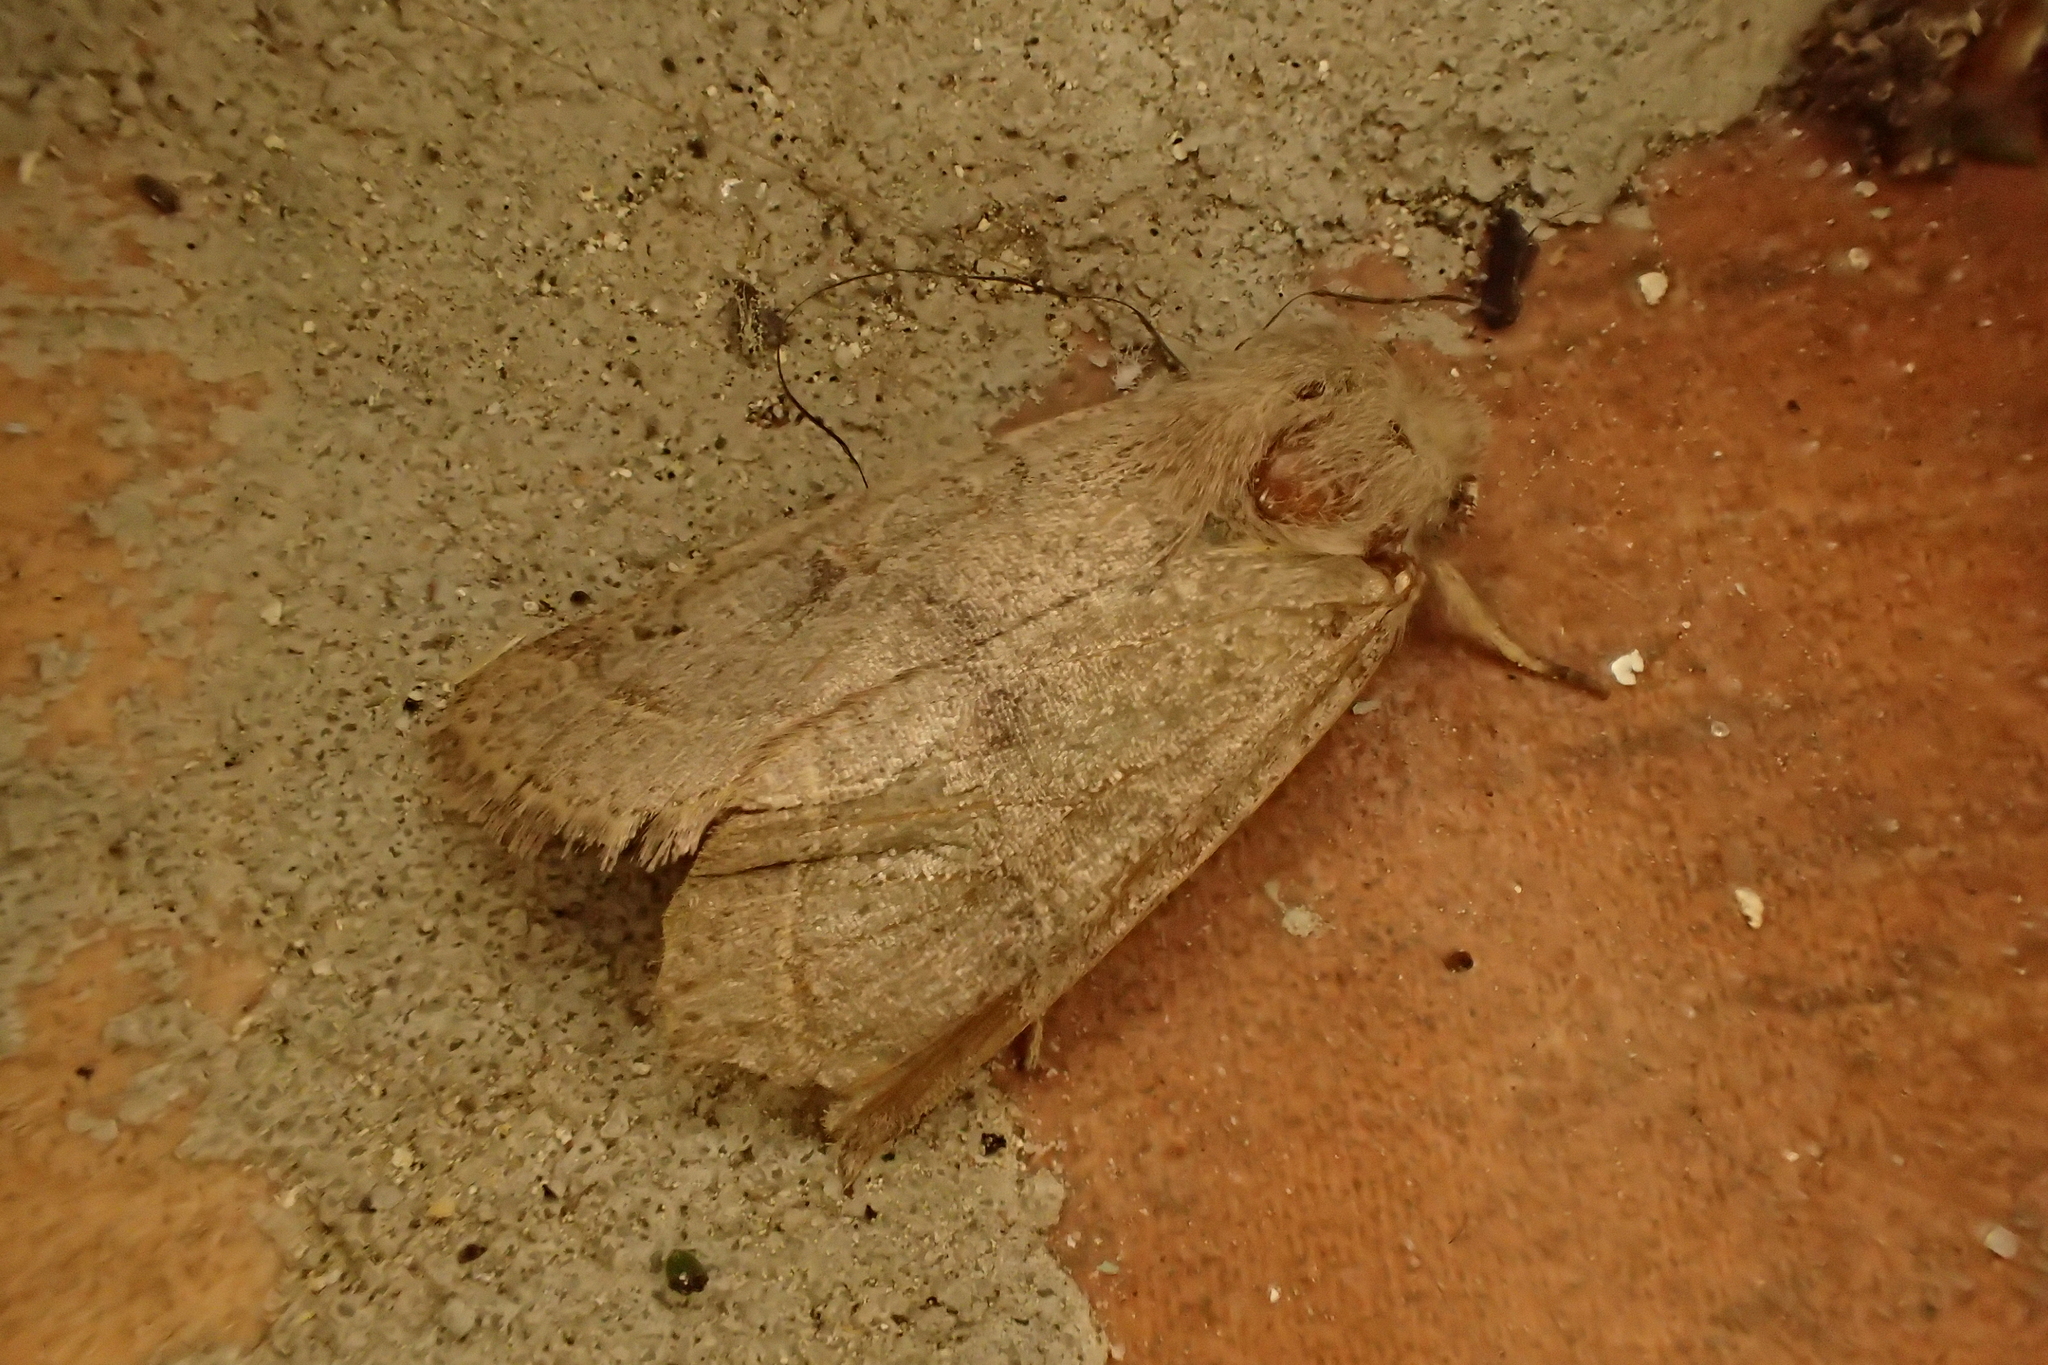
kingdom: Animalia
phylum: Arthropoda
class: Insecta
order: Lepidoptera
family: Noctuidae
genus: Orthosia
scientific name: Orthosia cerasi
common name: Common quaker
